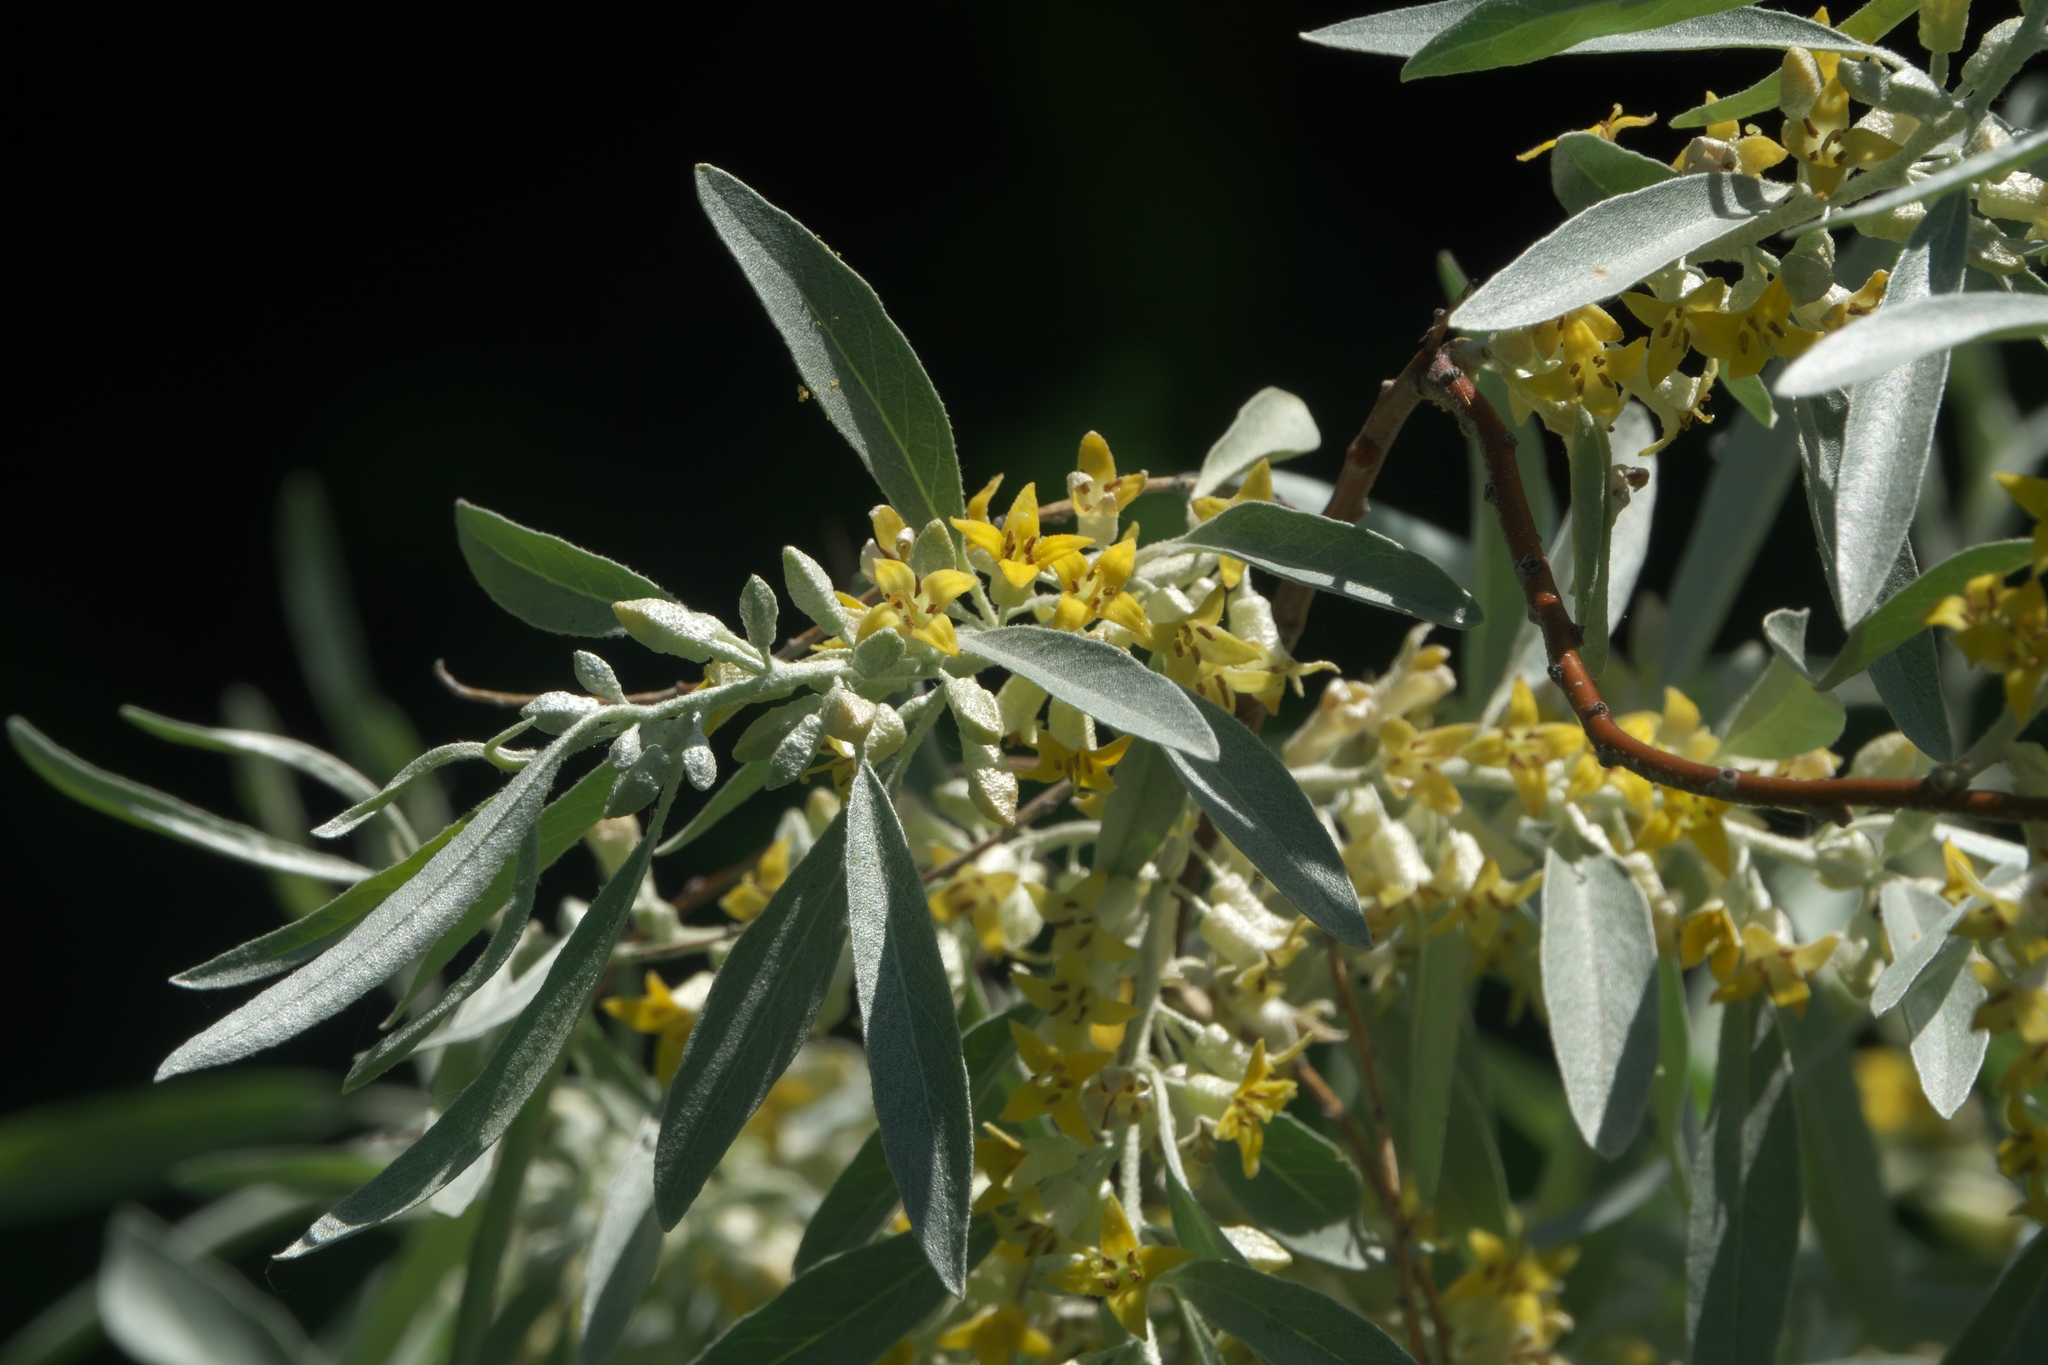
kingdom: Plantae
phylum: Tracheophyta
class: Magnoliopsida
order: Rosales
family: Elaeagnaceae
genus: Elaeagnus
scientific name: Elaeagnus angustifolia
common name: Russian olive
